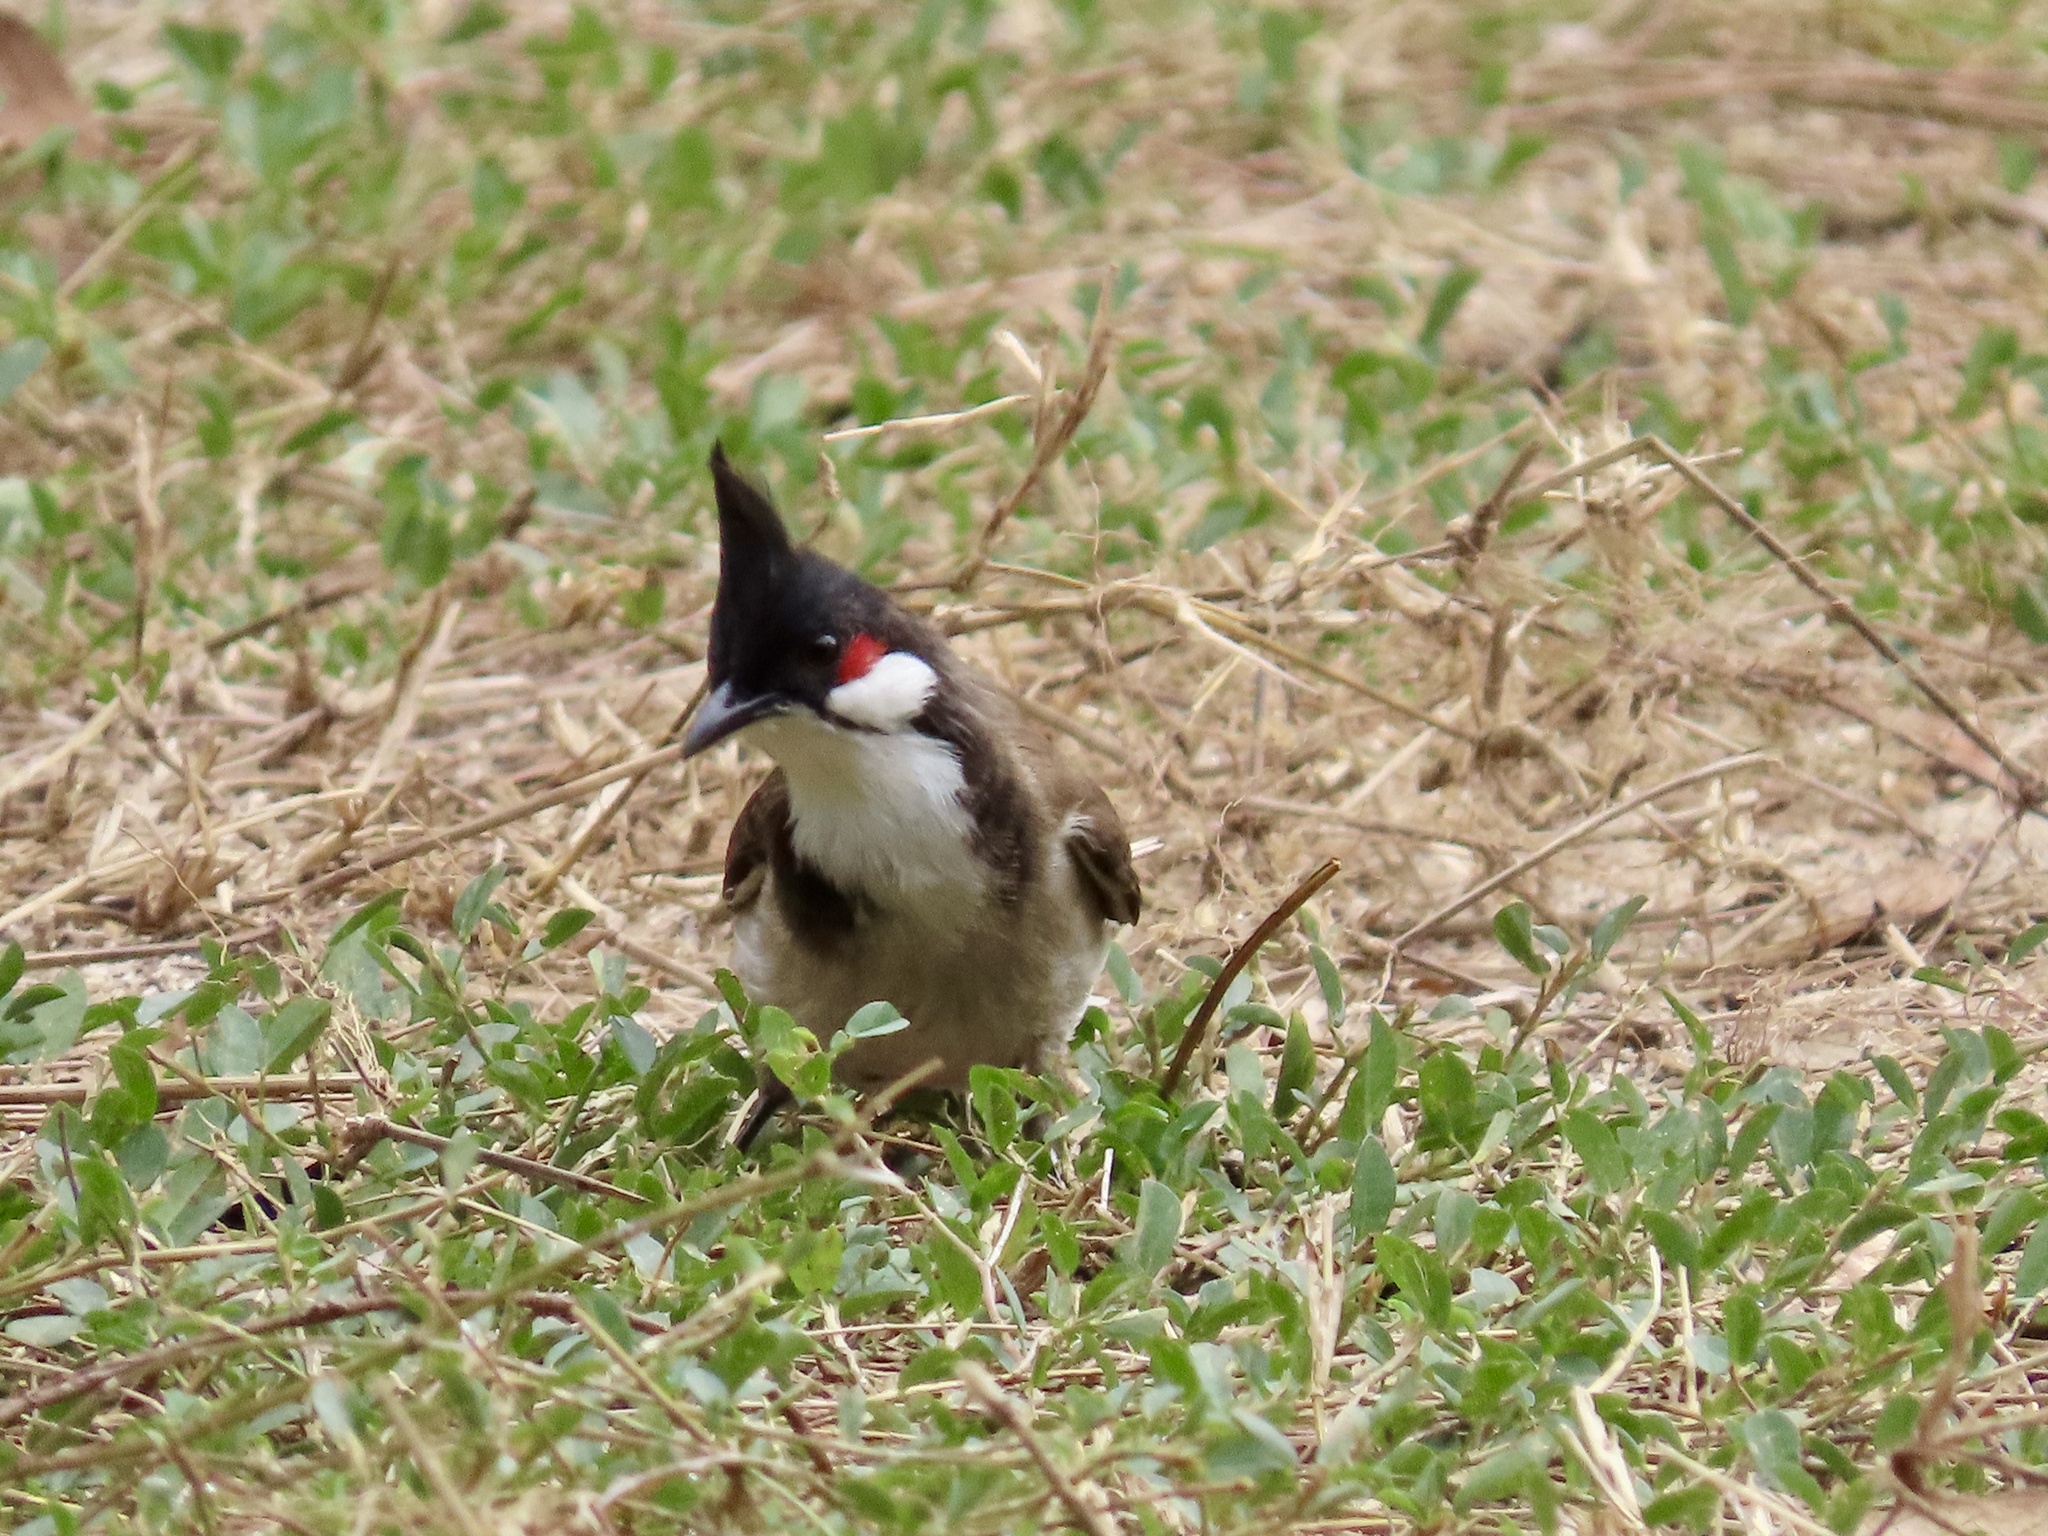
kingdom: Animalia
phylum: Chordata
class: Aves
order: Passeriformes
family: Pycnonotidae
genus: Pycnonotus
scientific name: Pycnonotus jocosus
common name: Red-whiskered bulbul
